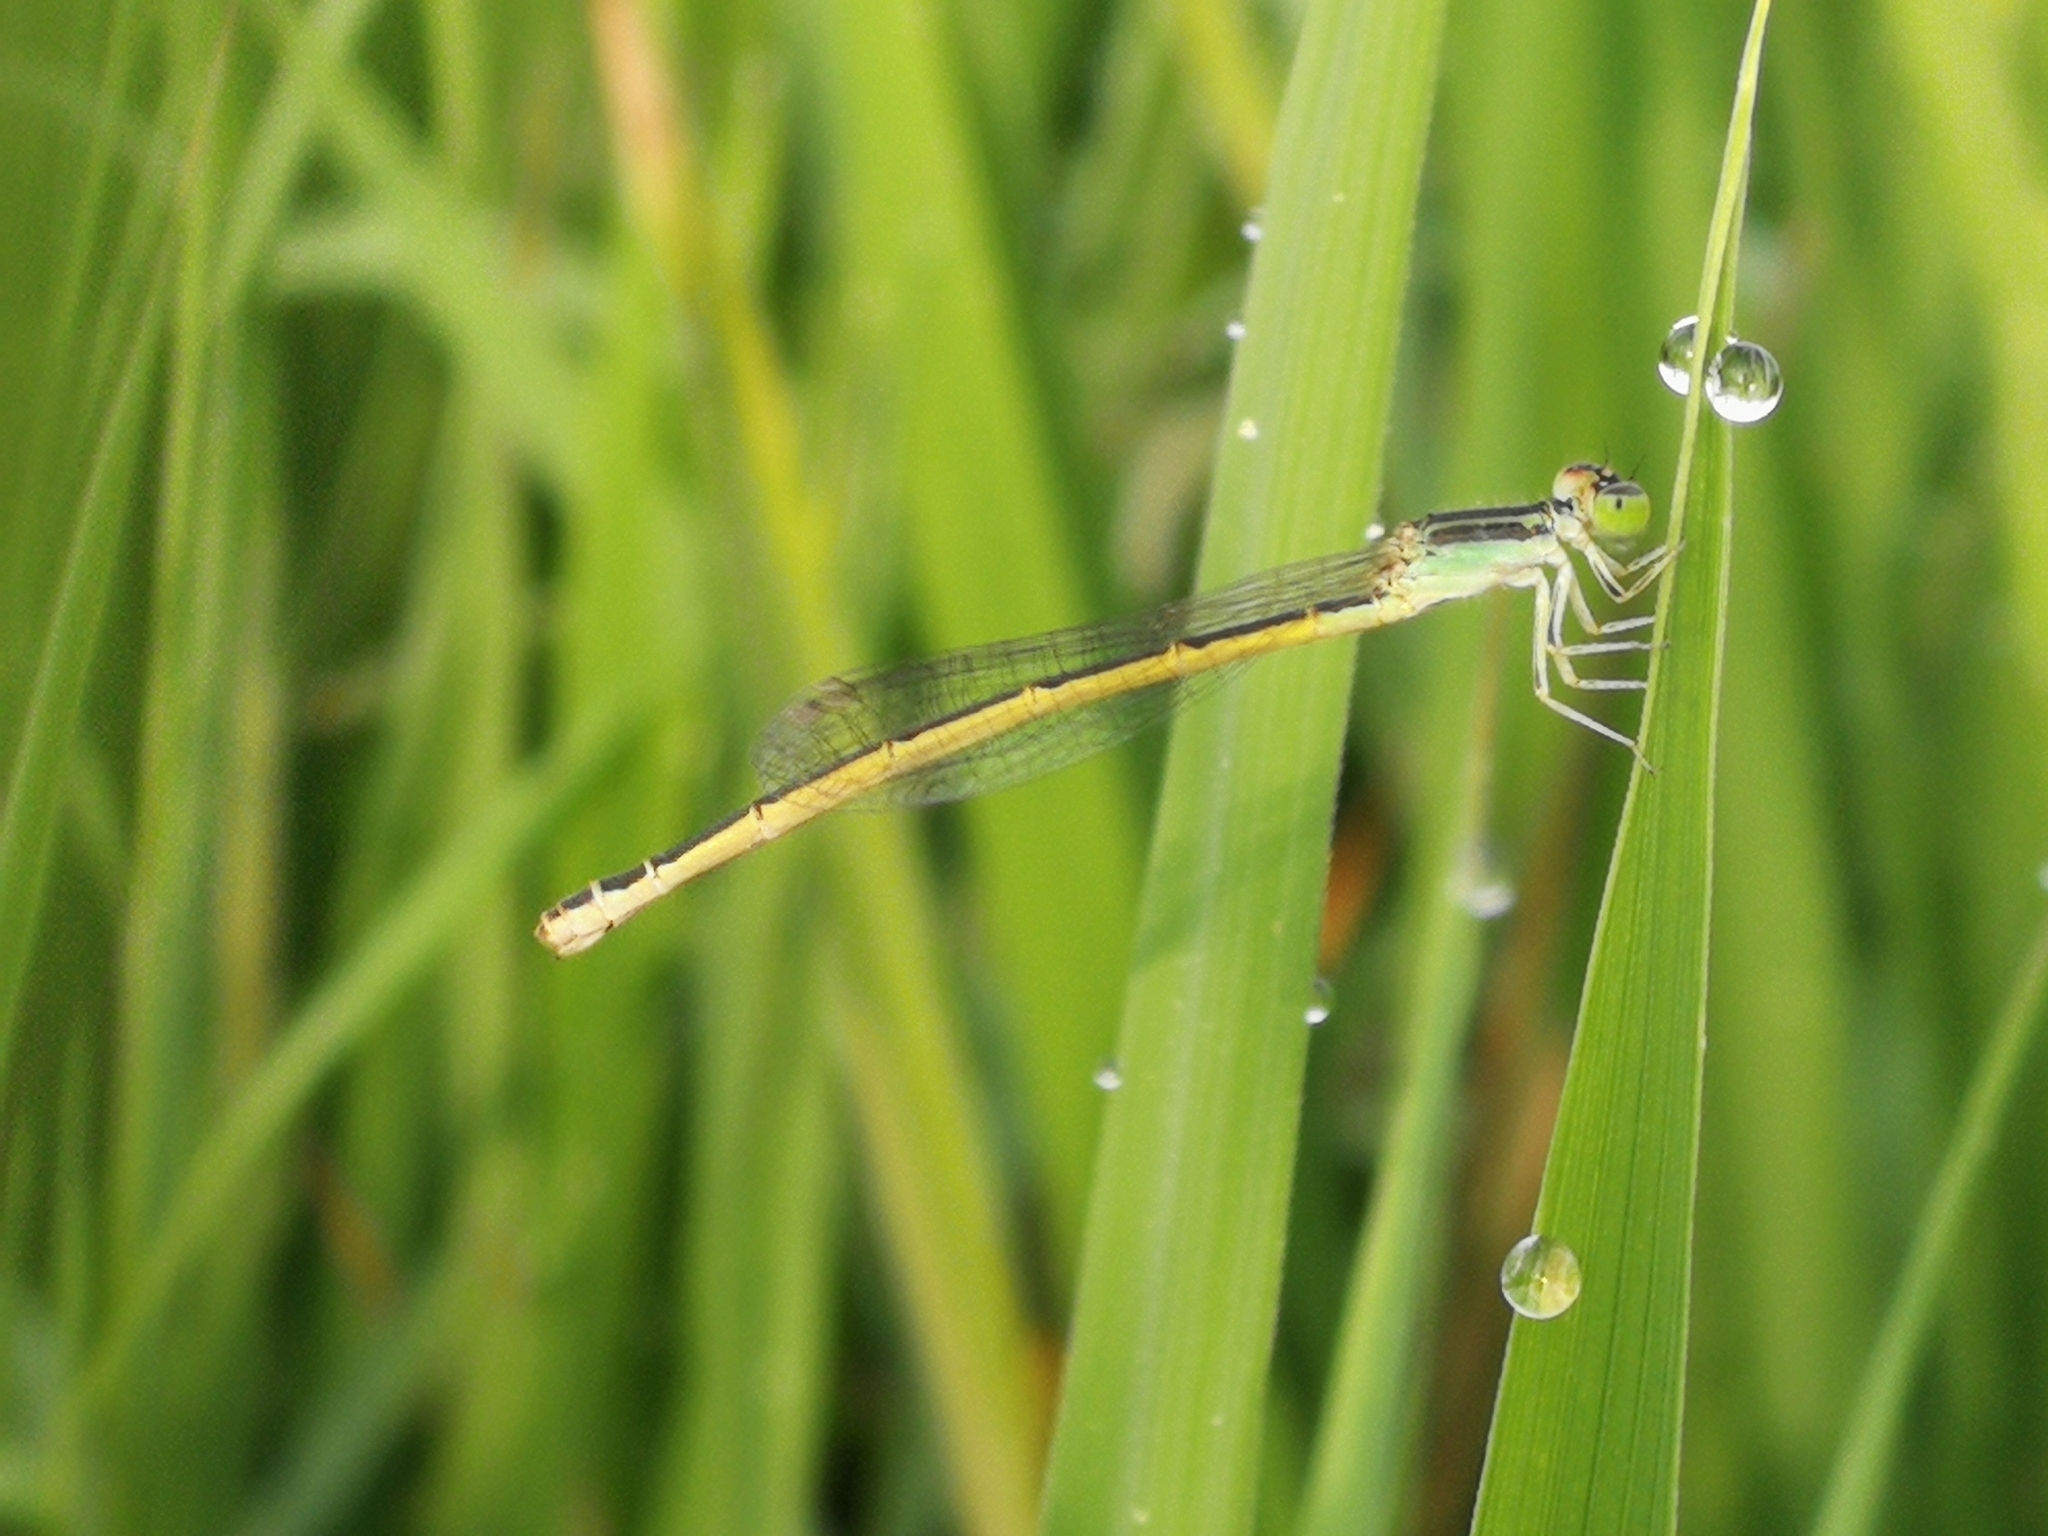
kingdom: Animalia
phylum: Arthropoda
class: Insecta
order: Odonata
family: Coenagrionidae
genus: Ischnura
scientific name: Ischnura rubilio
